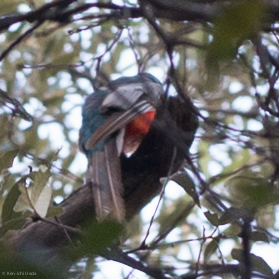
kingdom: Animalia
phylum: Chordata
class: Aves
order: Trogoniformes
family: Trogonidae
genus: Trogon
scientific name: Trogon elegans
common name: Elegant trogon
